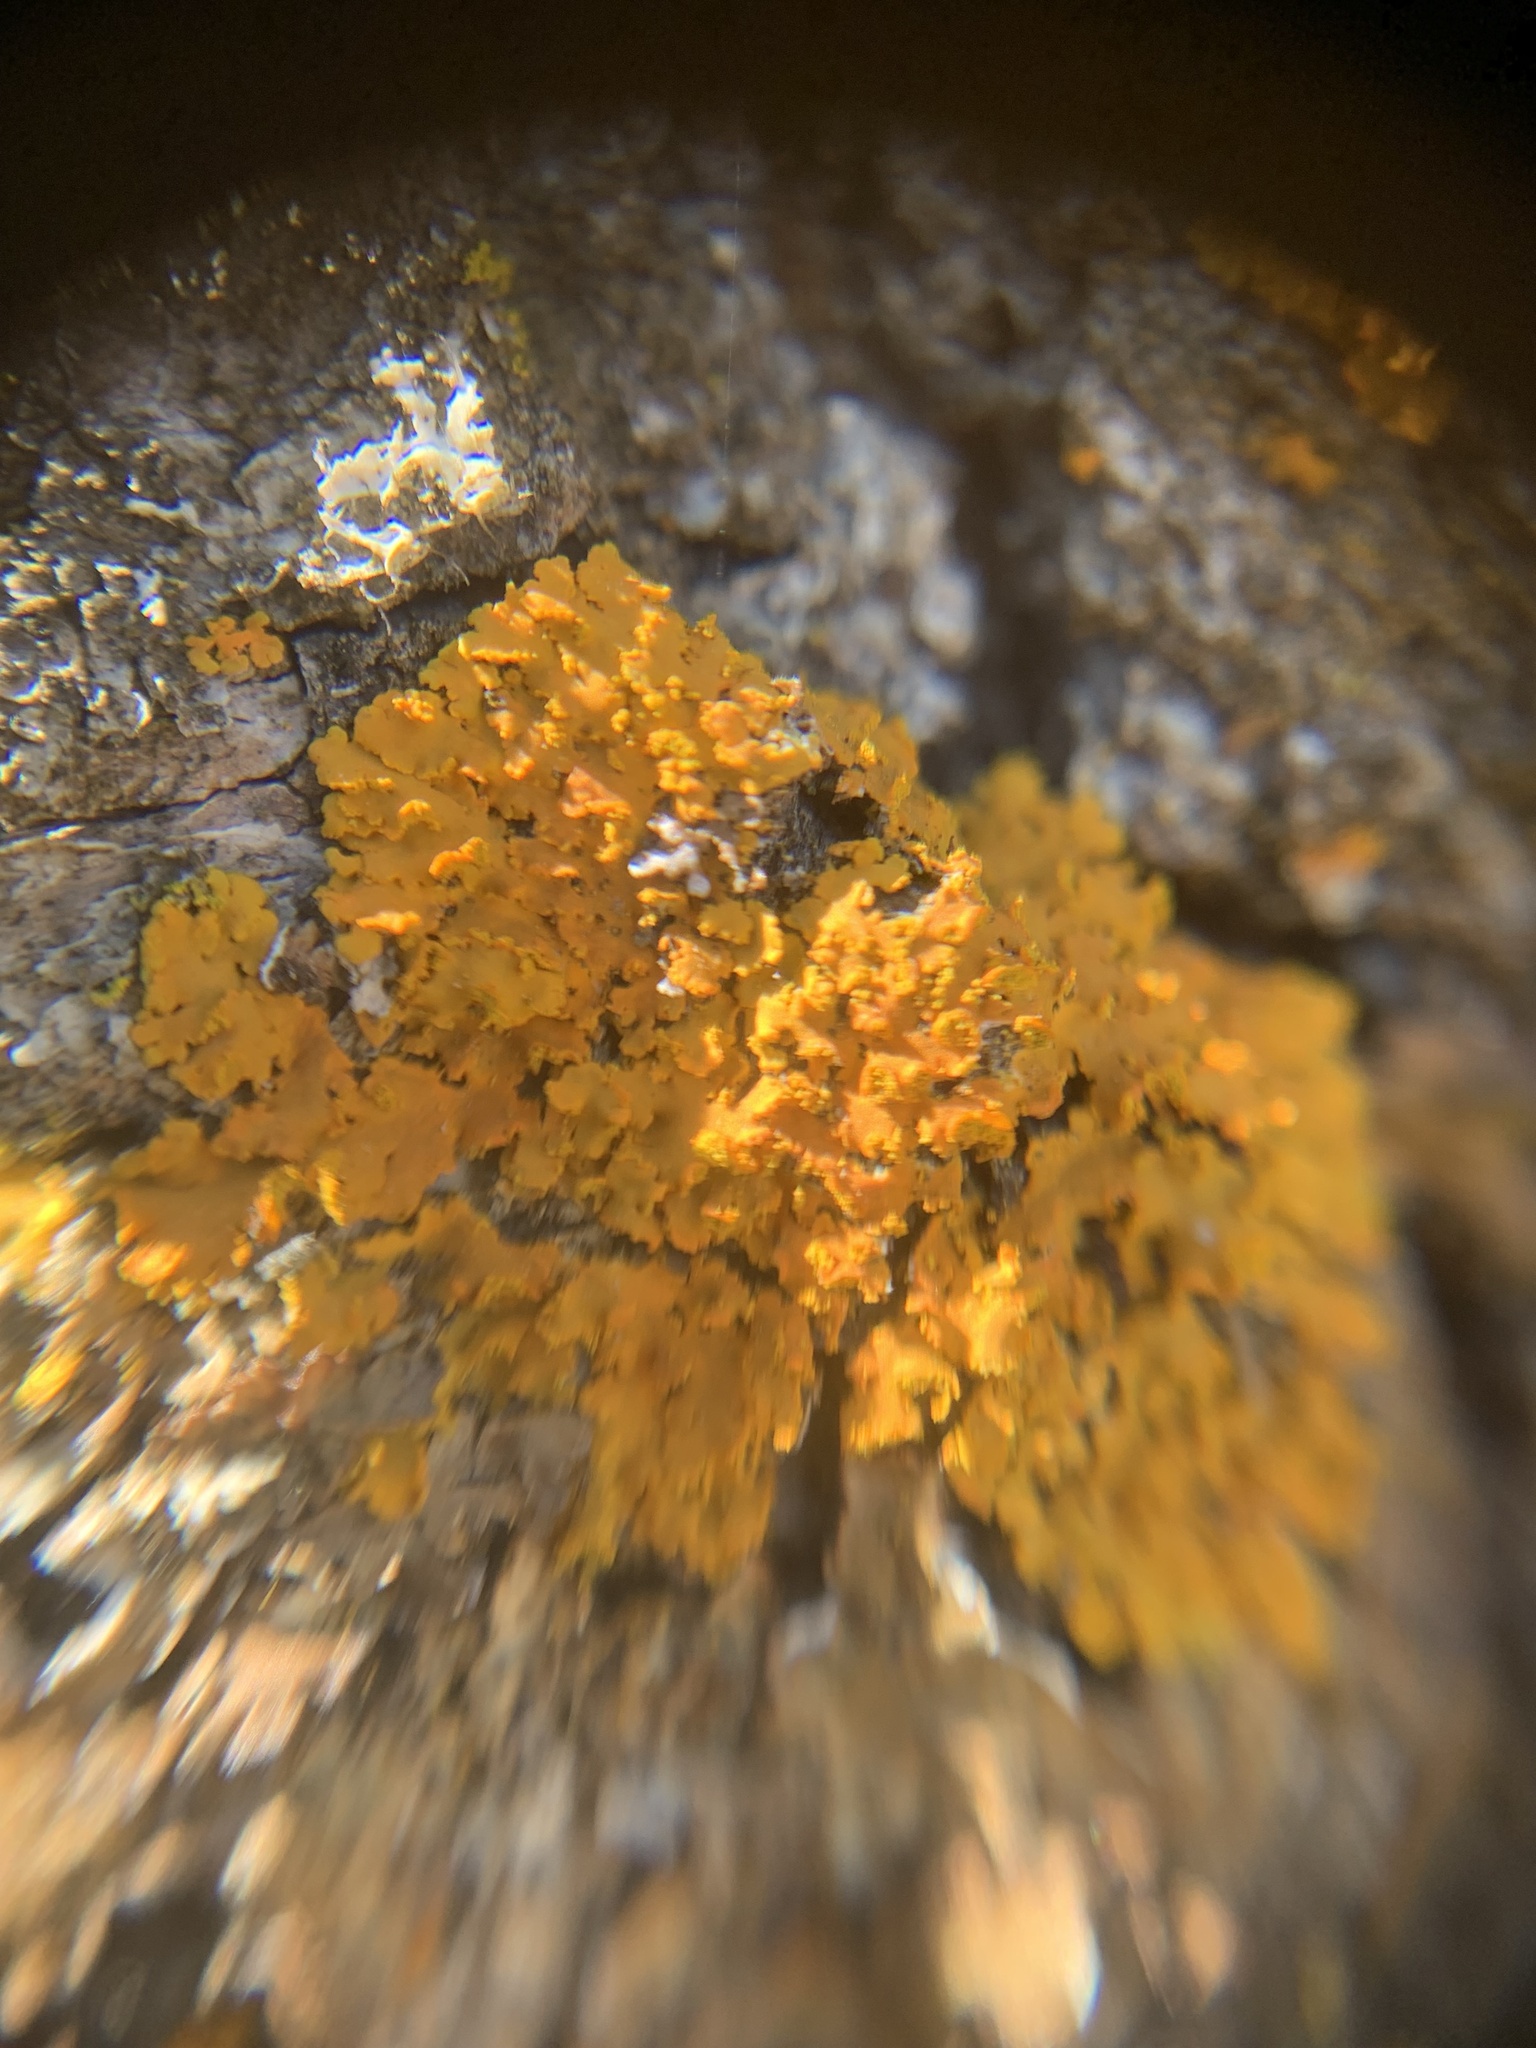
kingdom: Fungi
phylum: Ascomycota
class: Lecanoromycetes
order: Teloschistales
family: Teloschistaceae
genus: Oxneria
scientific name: Oxneria fallax
